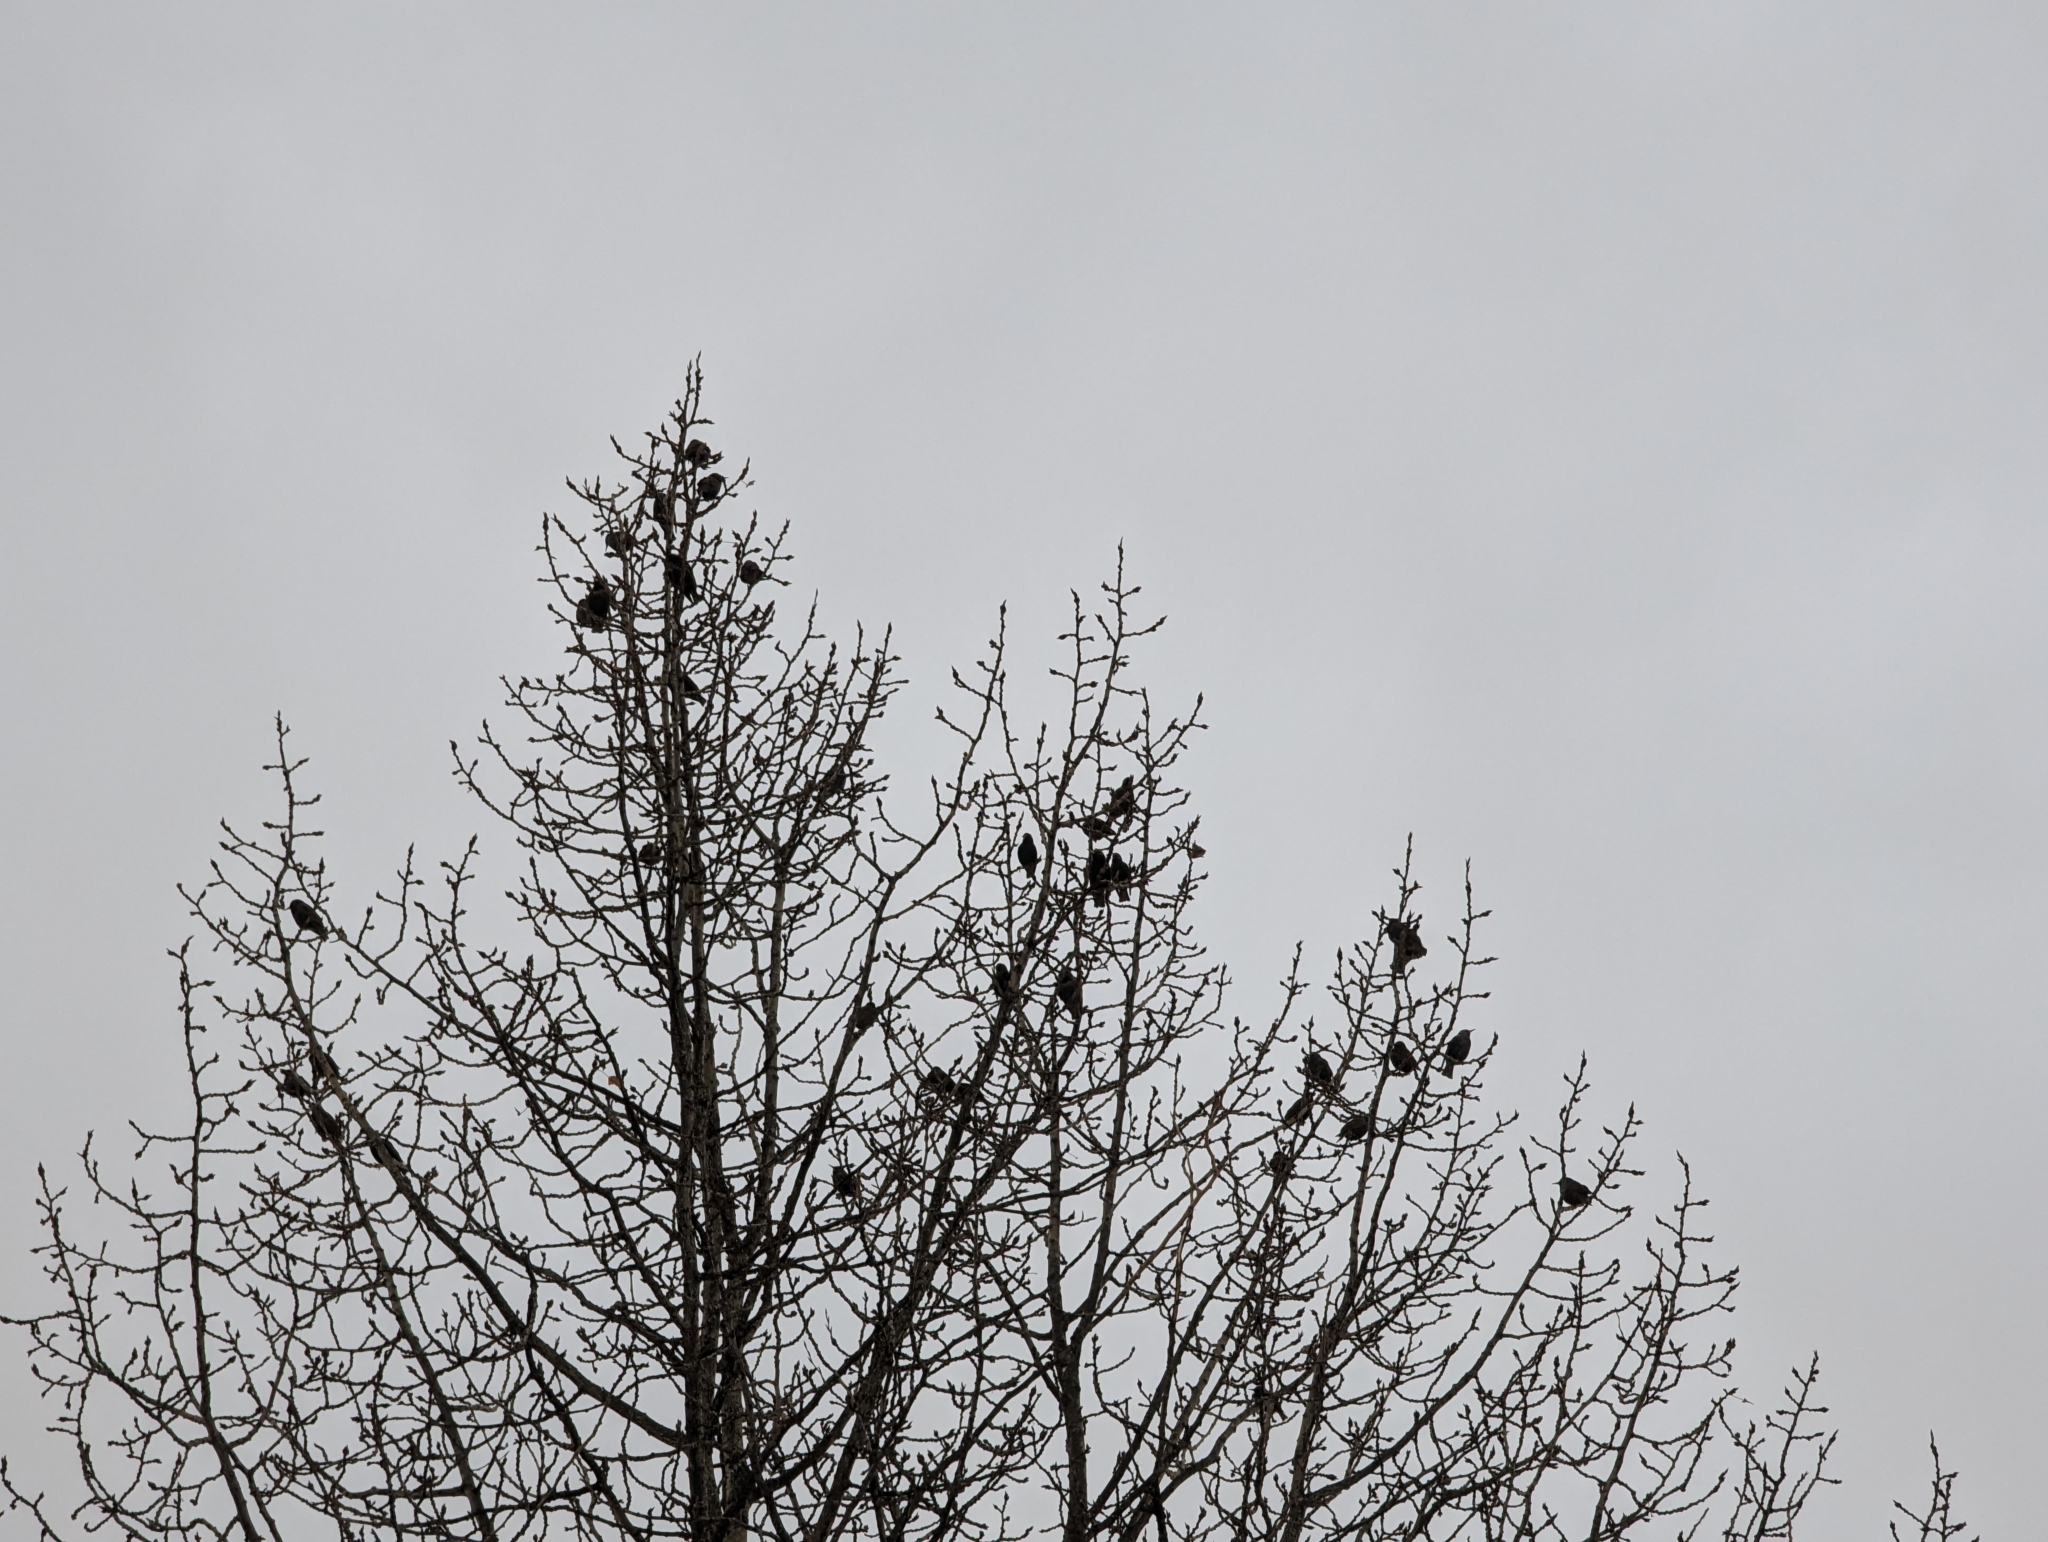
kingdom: Animalia
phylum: Chordata
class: Aves
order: Passeriformes
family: Sturnidae
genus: Sturnus
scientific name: Sturnus vulgaris
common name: Common starling
